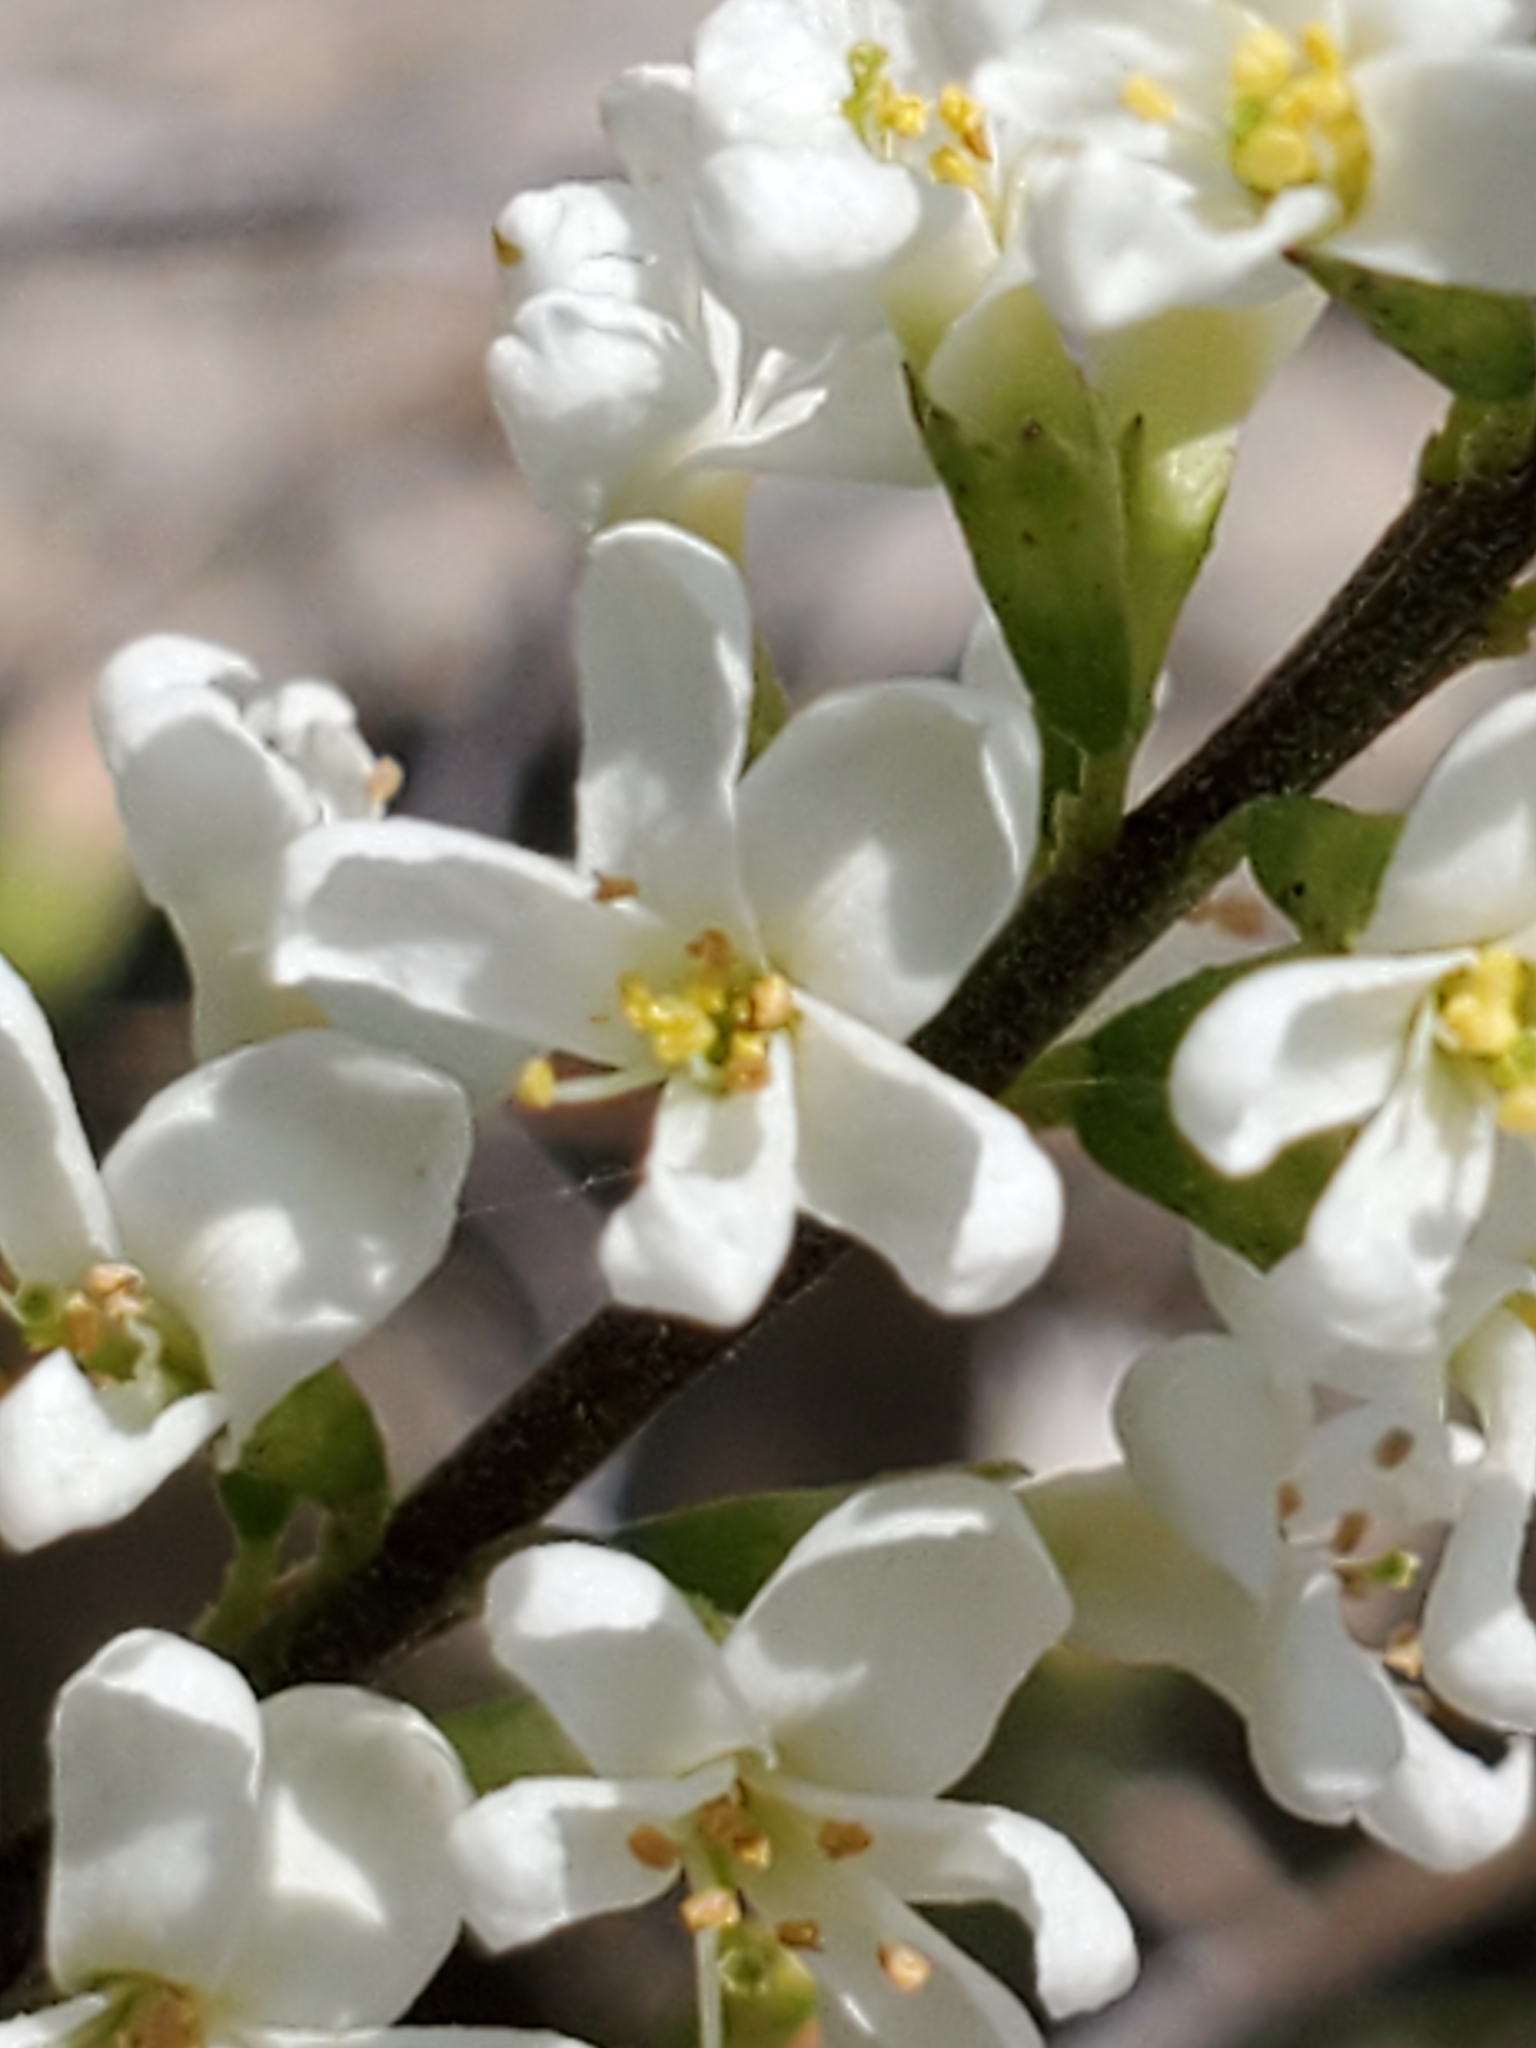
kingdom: Plantae
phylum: Tracheophyta
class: Magnoliopsida
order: Fabales
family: Fabaceae
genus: Eysenhardtia
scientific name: Eysenhardtia texana
